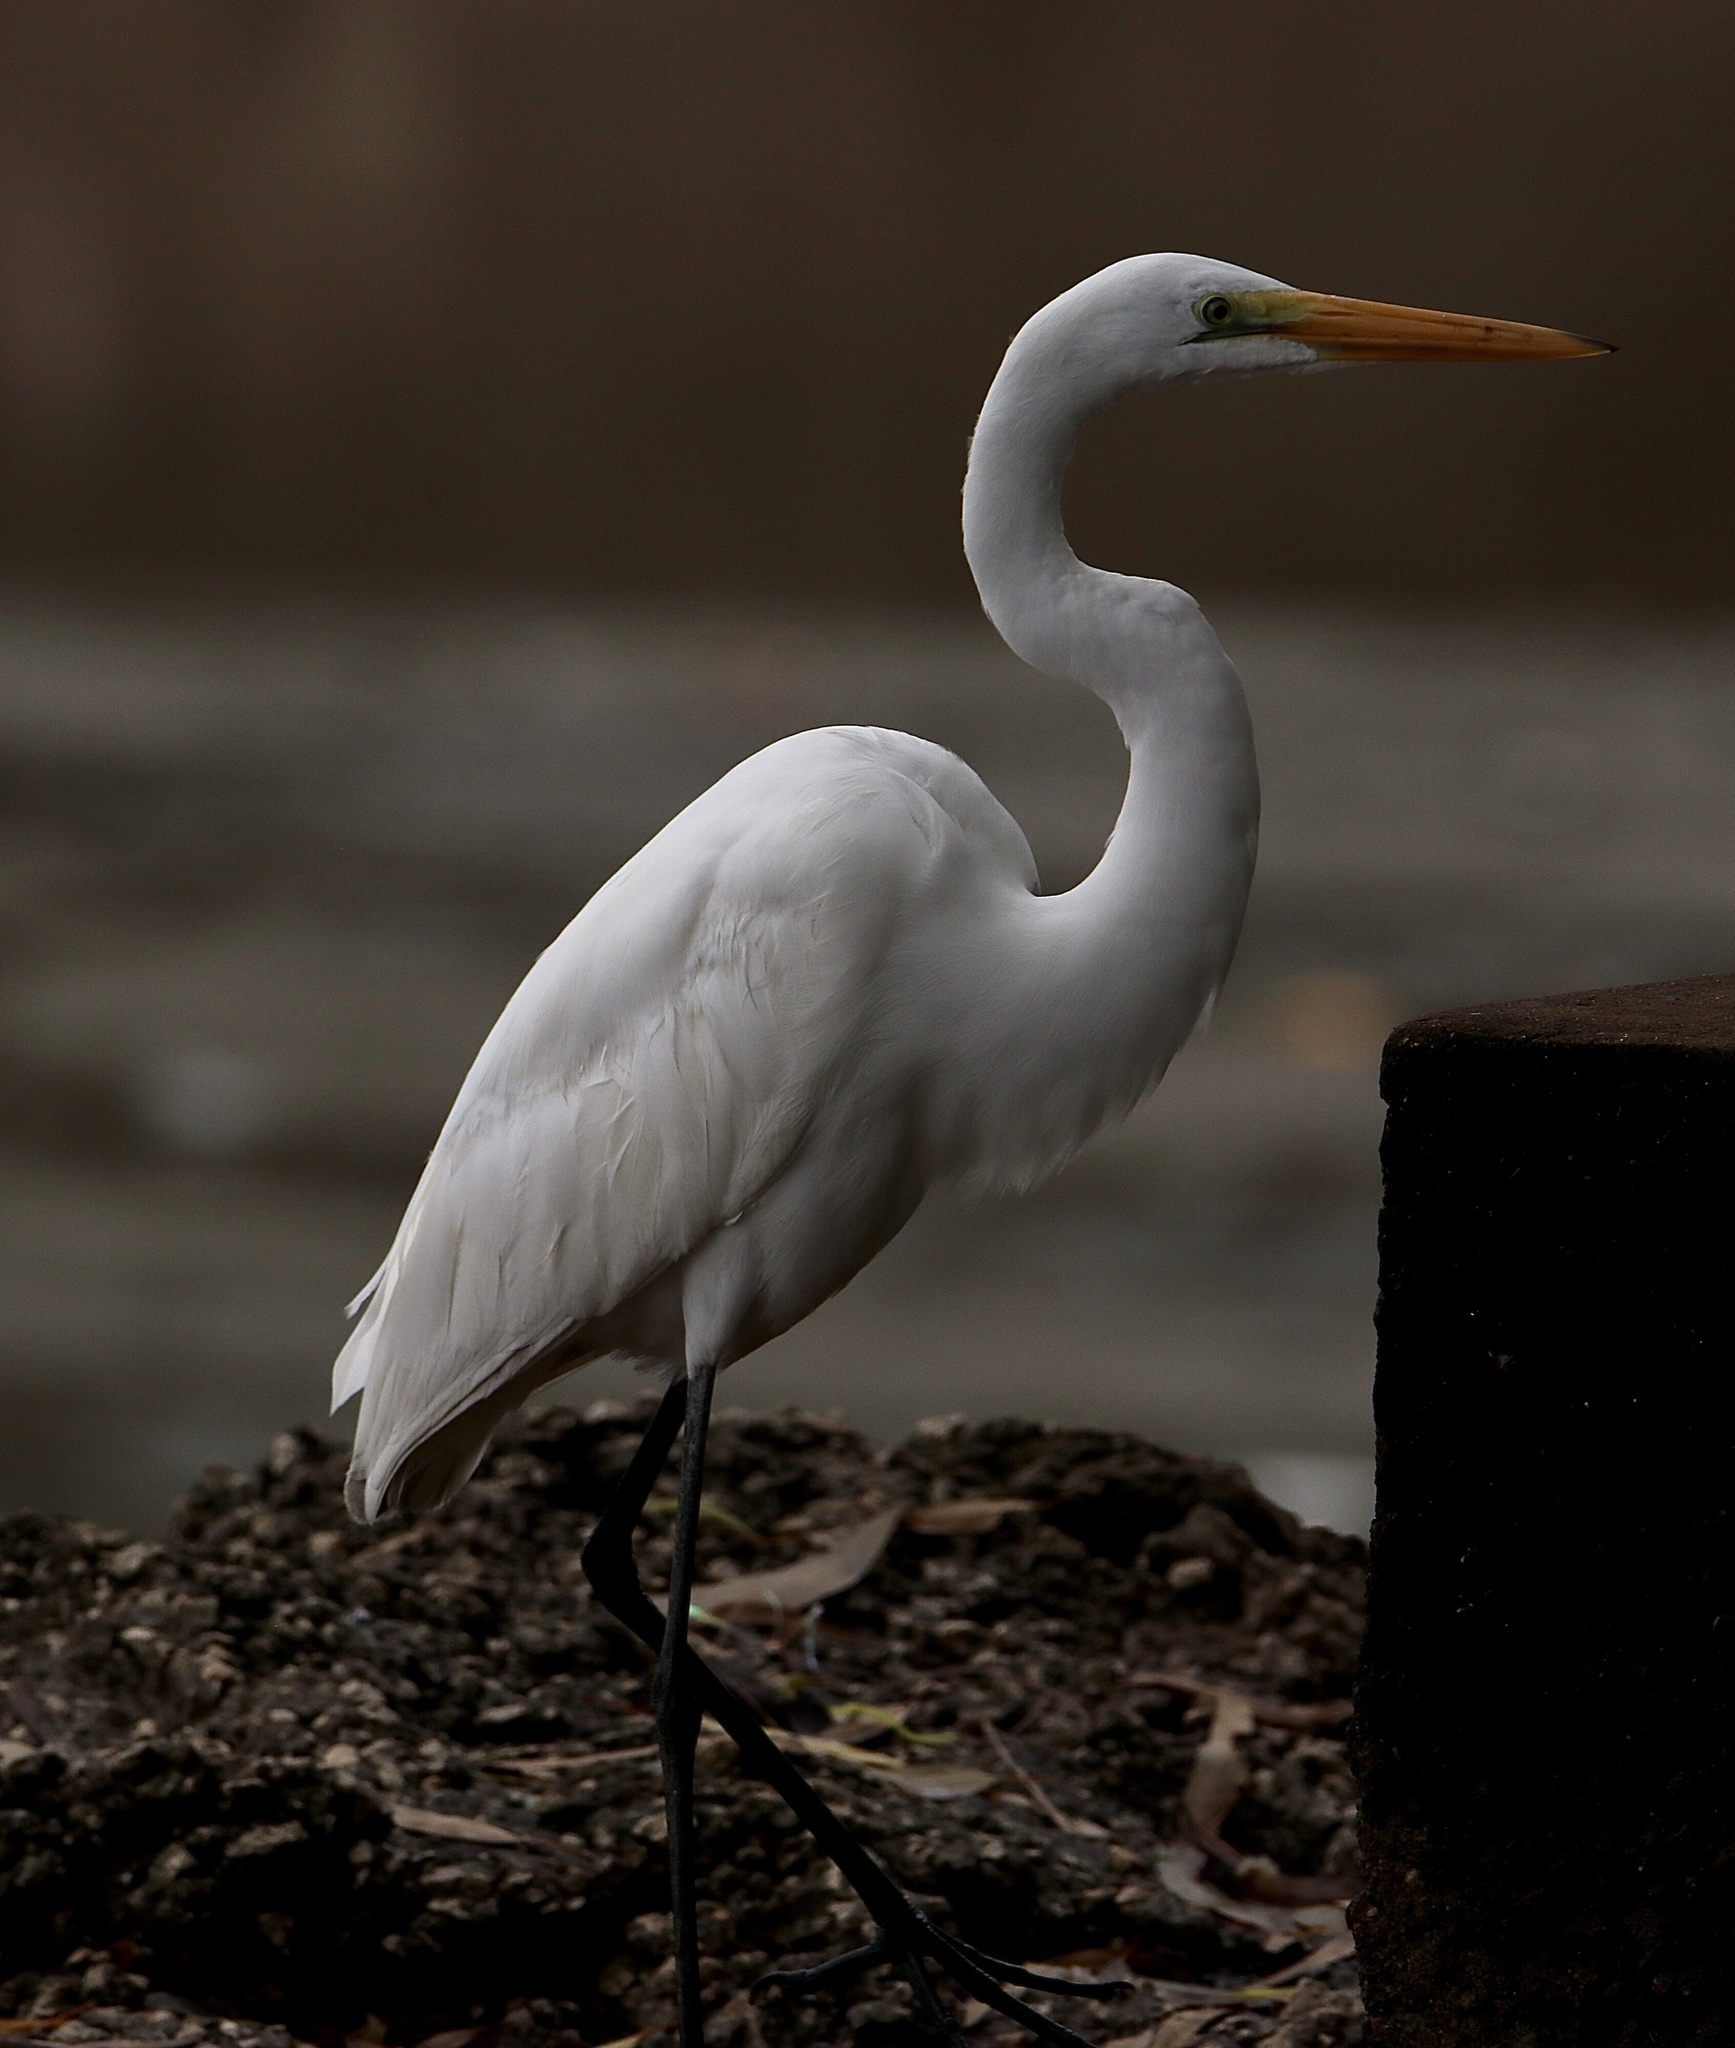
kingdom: Animalia
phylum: Chordata
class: Aves
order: Pelecaniformes
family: Ardeidae
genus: Ardea
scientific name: Ardea alba
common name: Great egret
